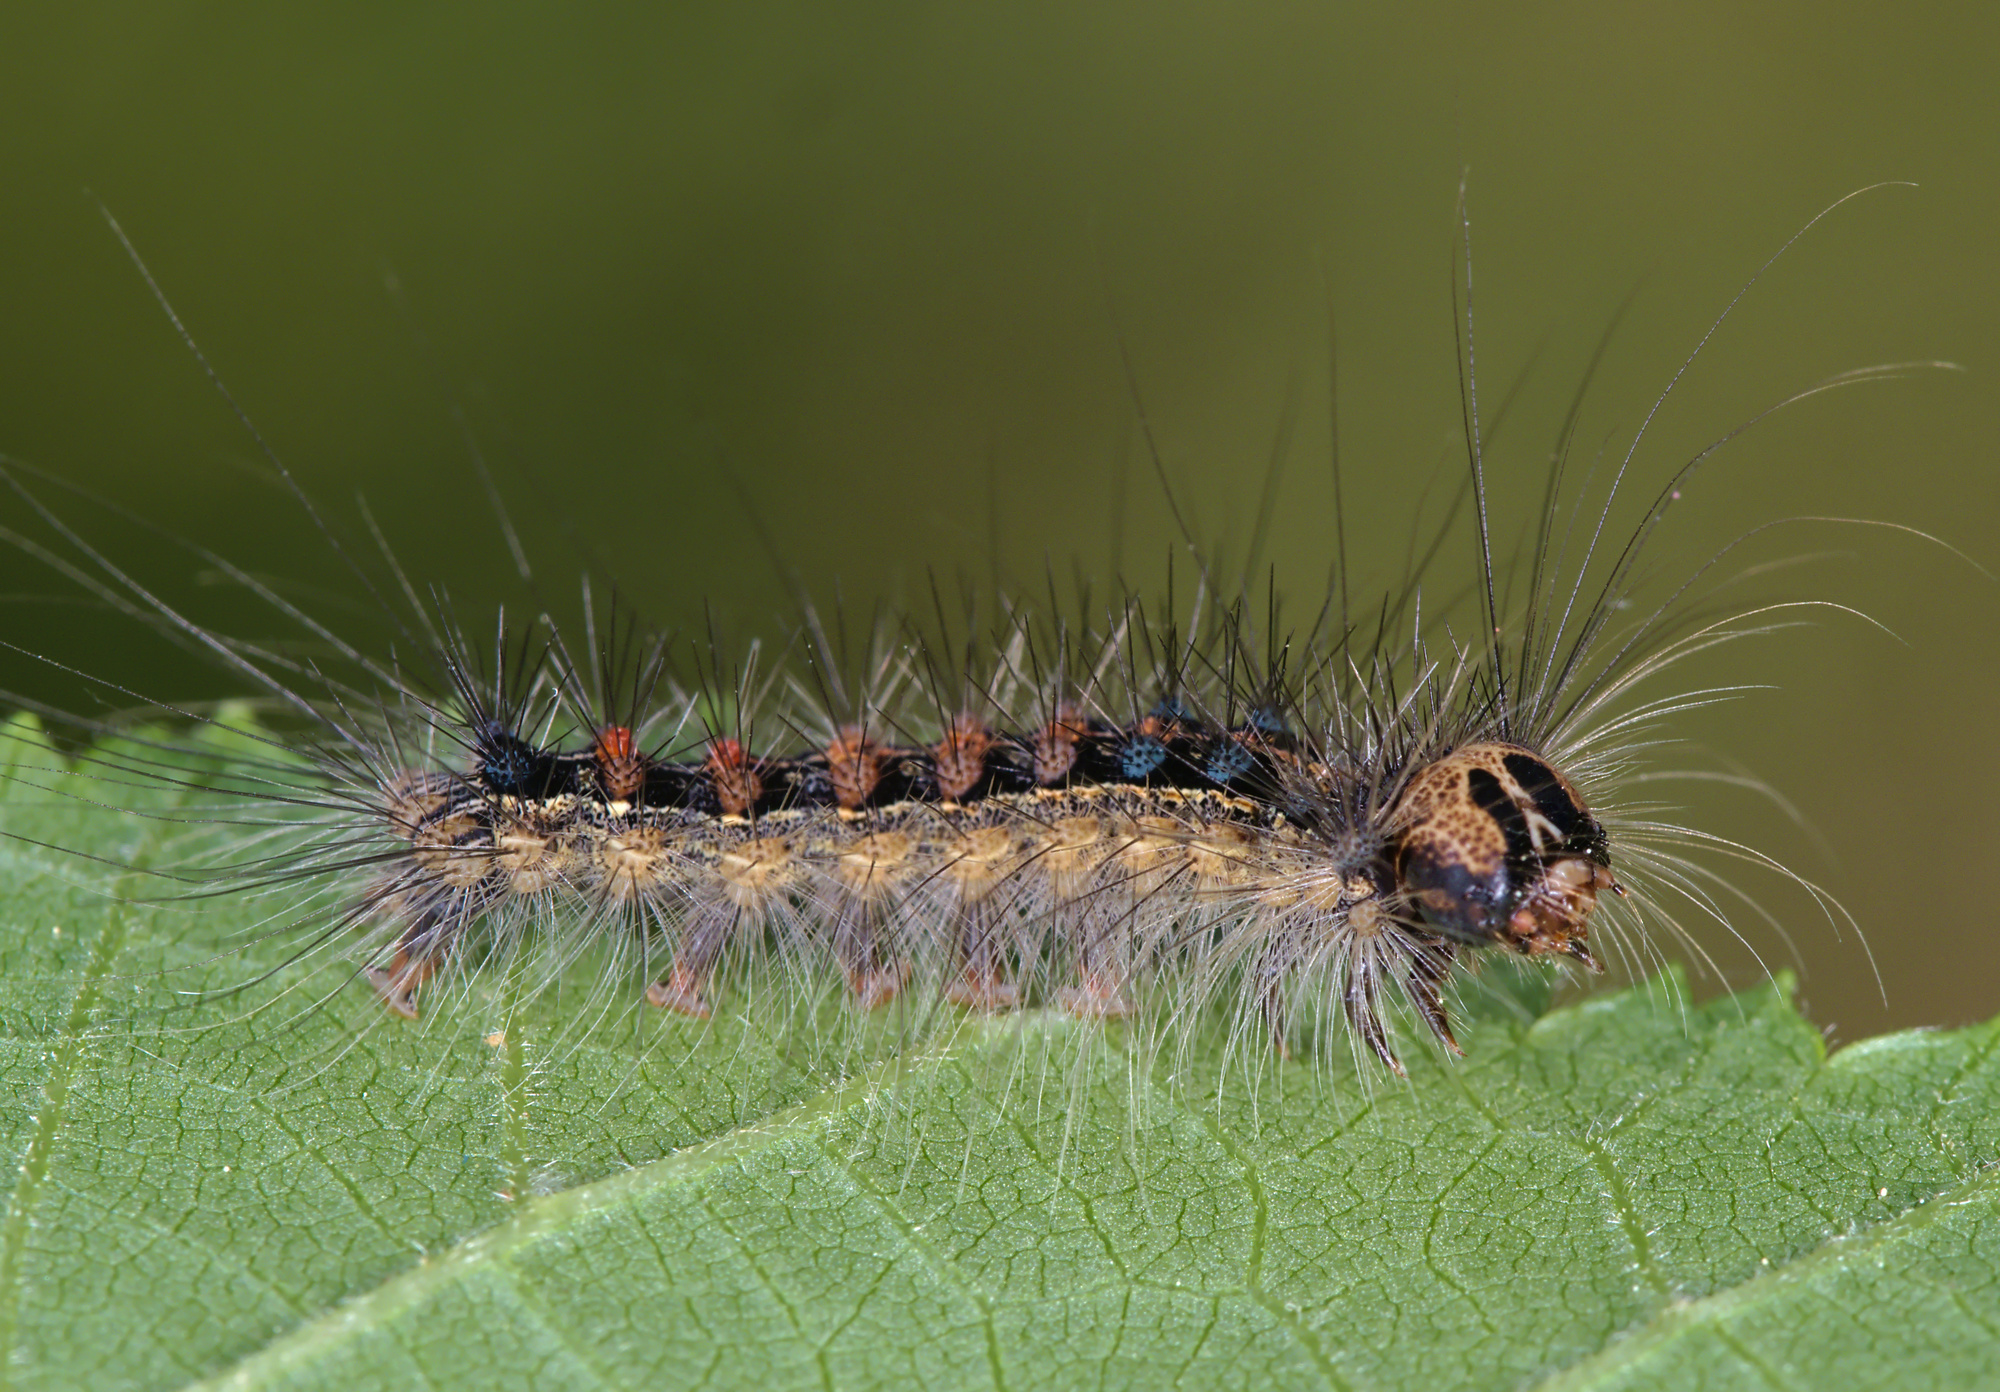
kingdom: Animalia
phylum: Arthropoda
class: Insecta
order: Lepidoptera
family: Erebidae
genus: Lymantria
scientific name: Lymantria dispar
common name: Gypsy moth
